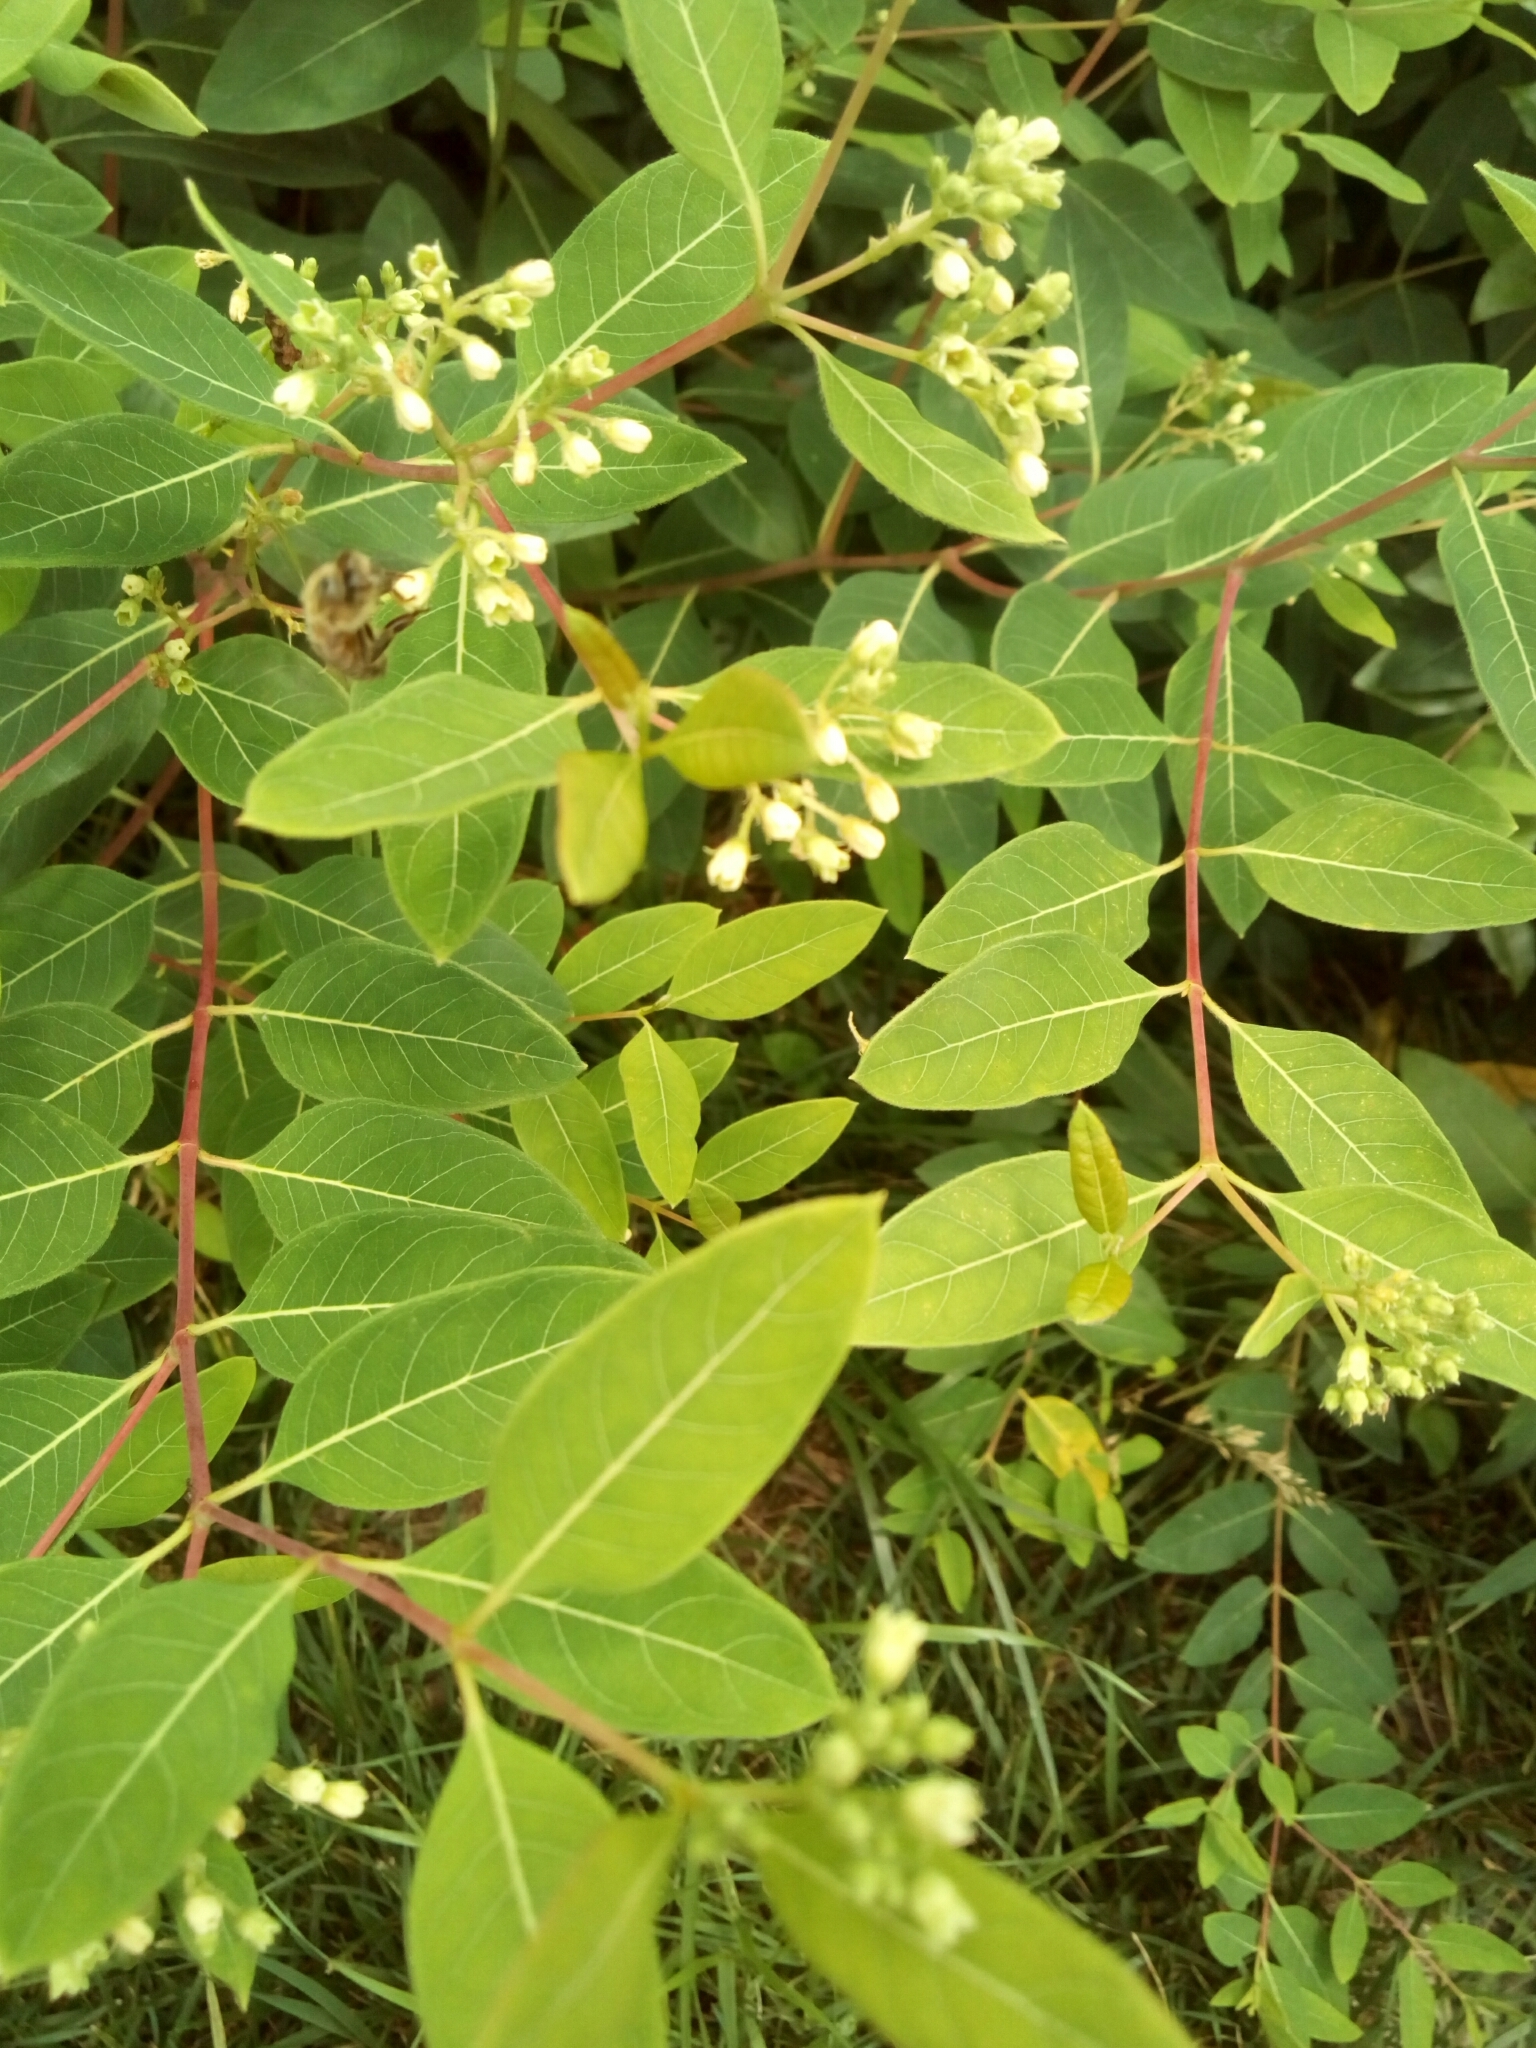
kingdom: Plantae
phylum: Tracheophyta
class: Magnoliopsida
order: Gentianales
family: Apocynaceae
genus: Apocynum
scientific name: Apocynum cannabinum
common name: Hemp dogbane
